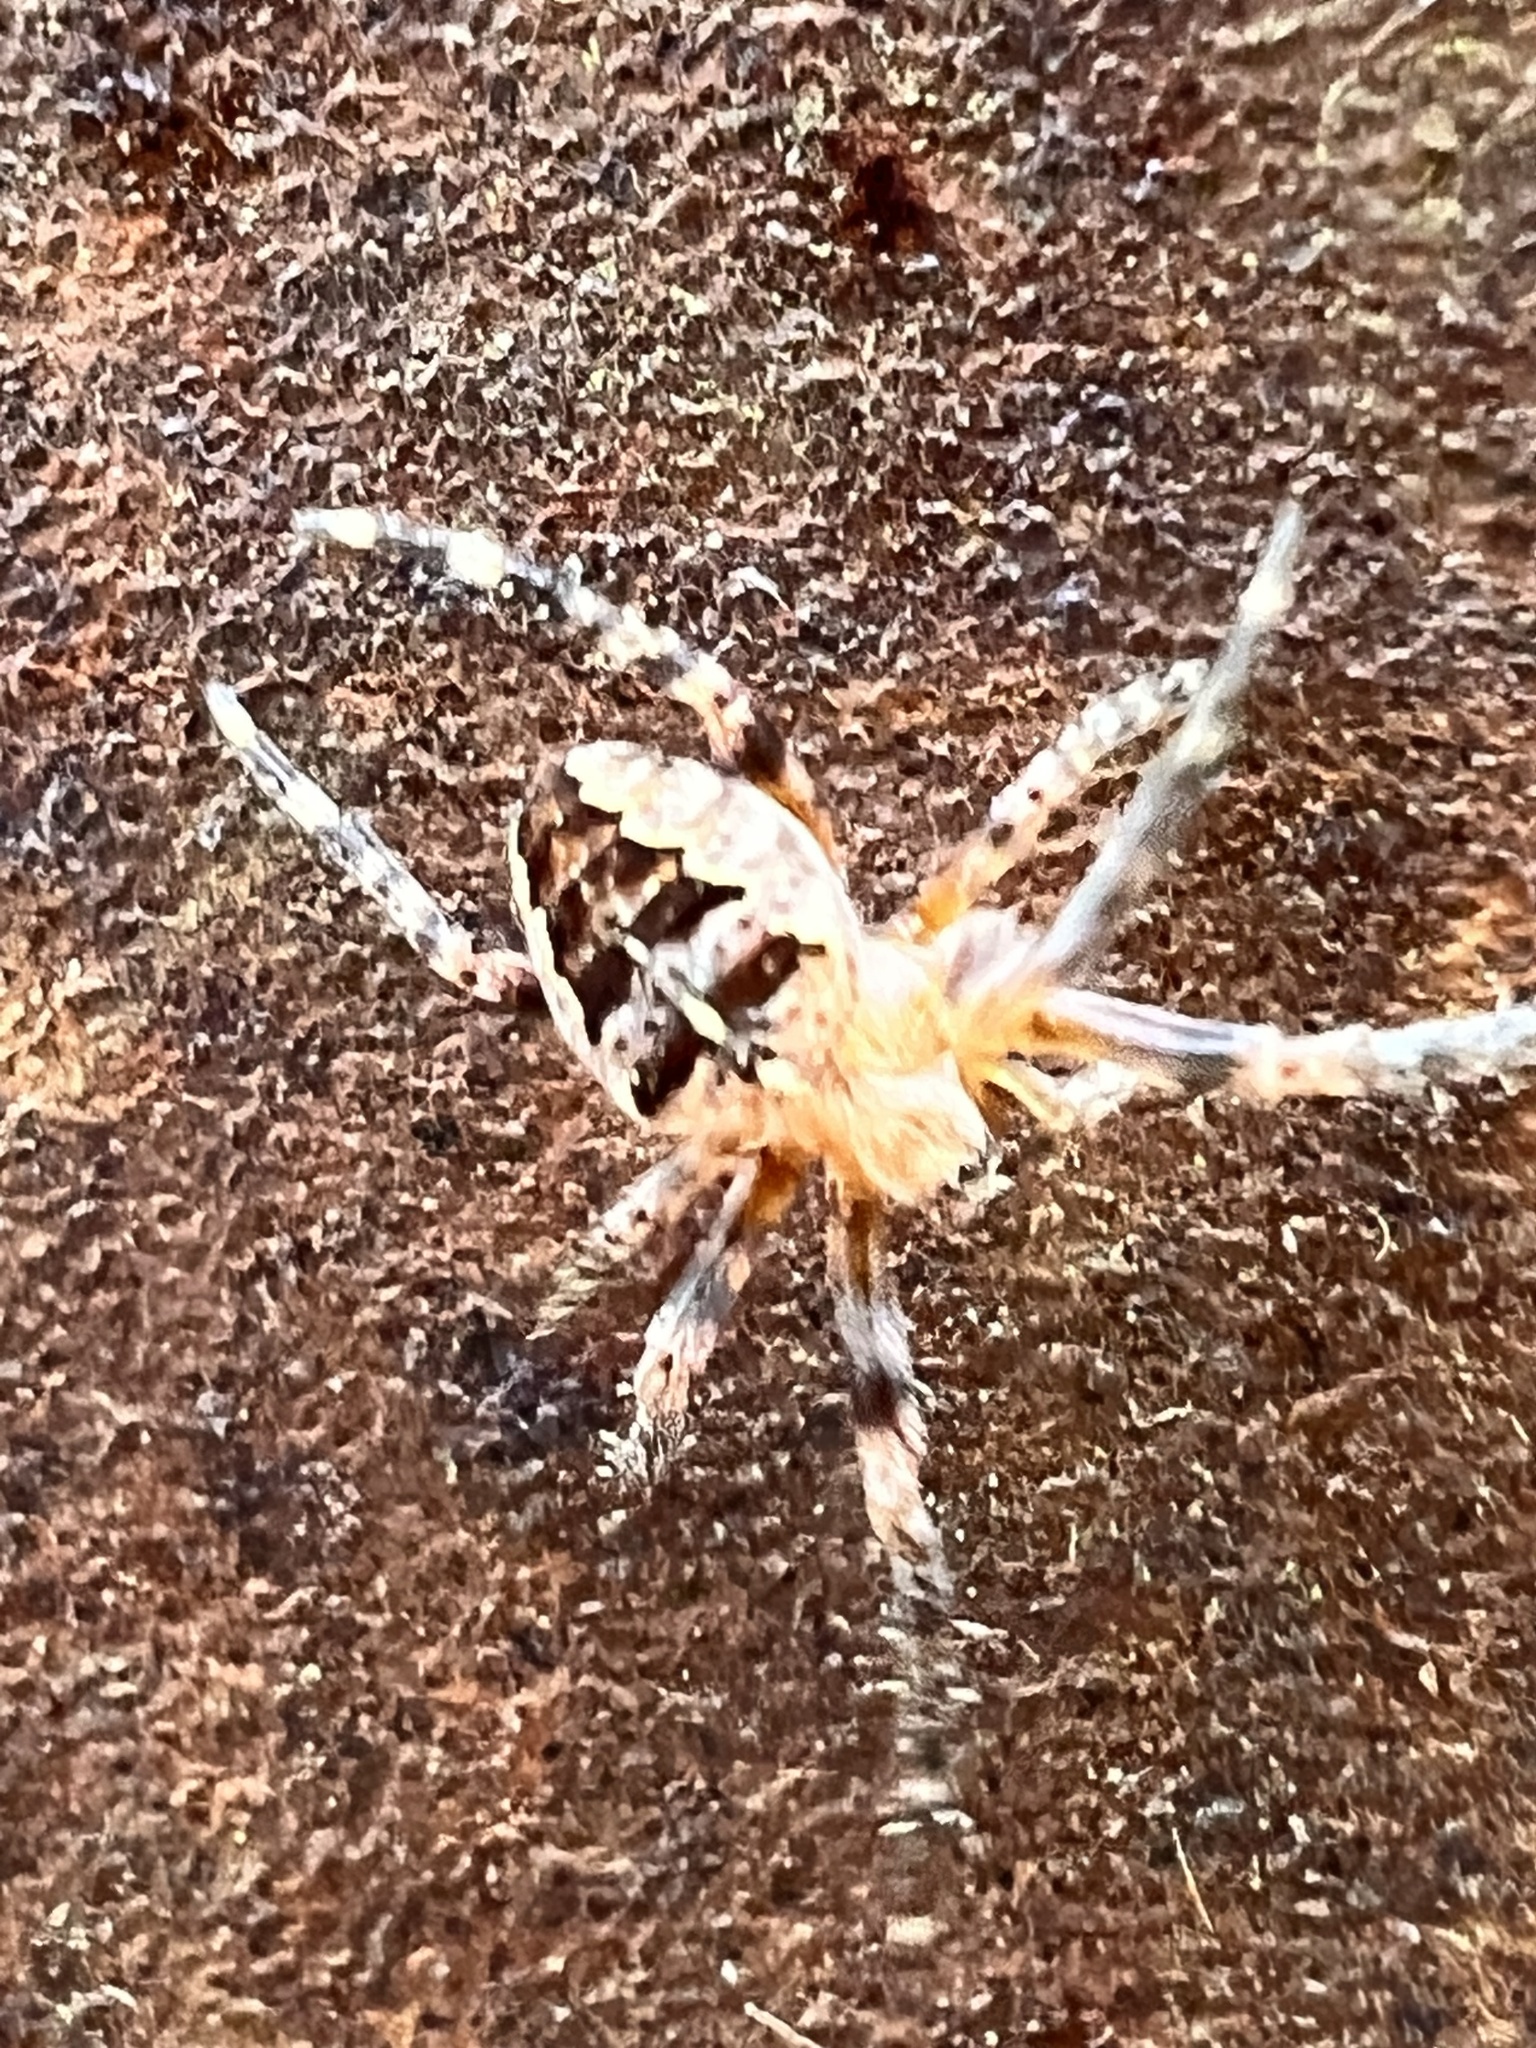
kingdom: Animalia
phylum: Arthropoda
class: Arachnida
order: Araneae
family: Araneidae
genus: Araneus
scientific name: Araneus diadematus
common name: Cross orbweaver
